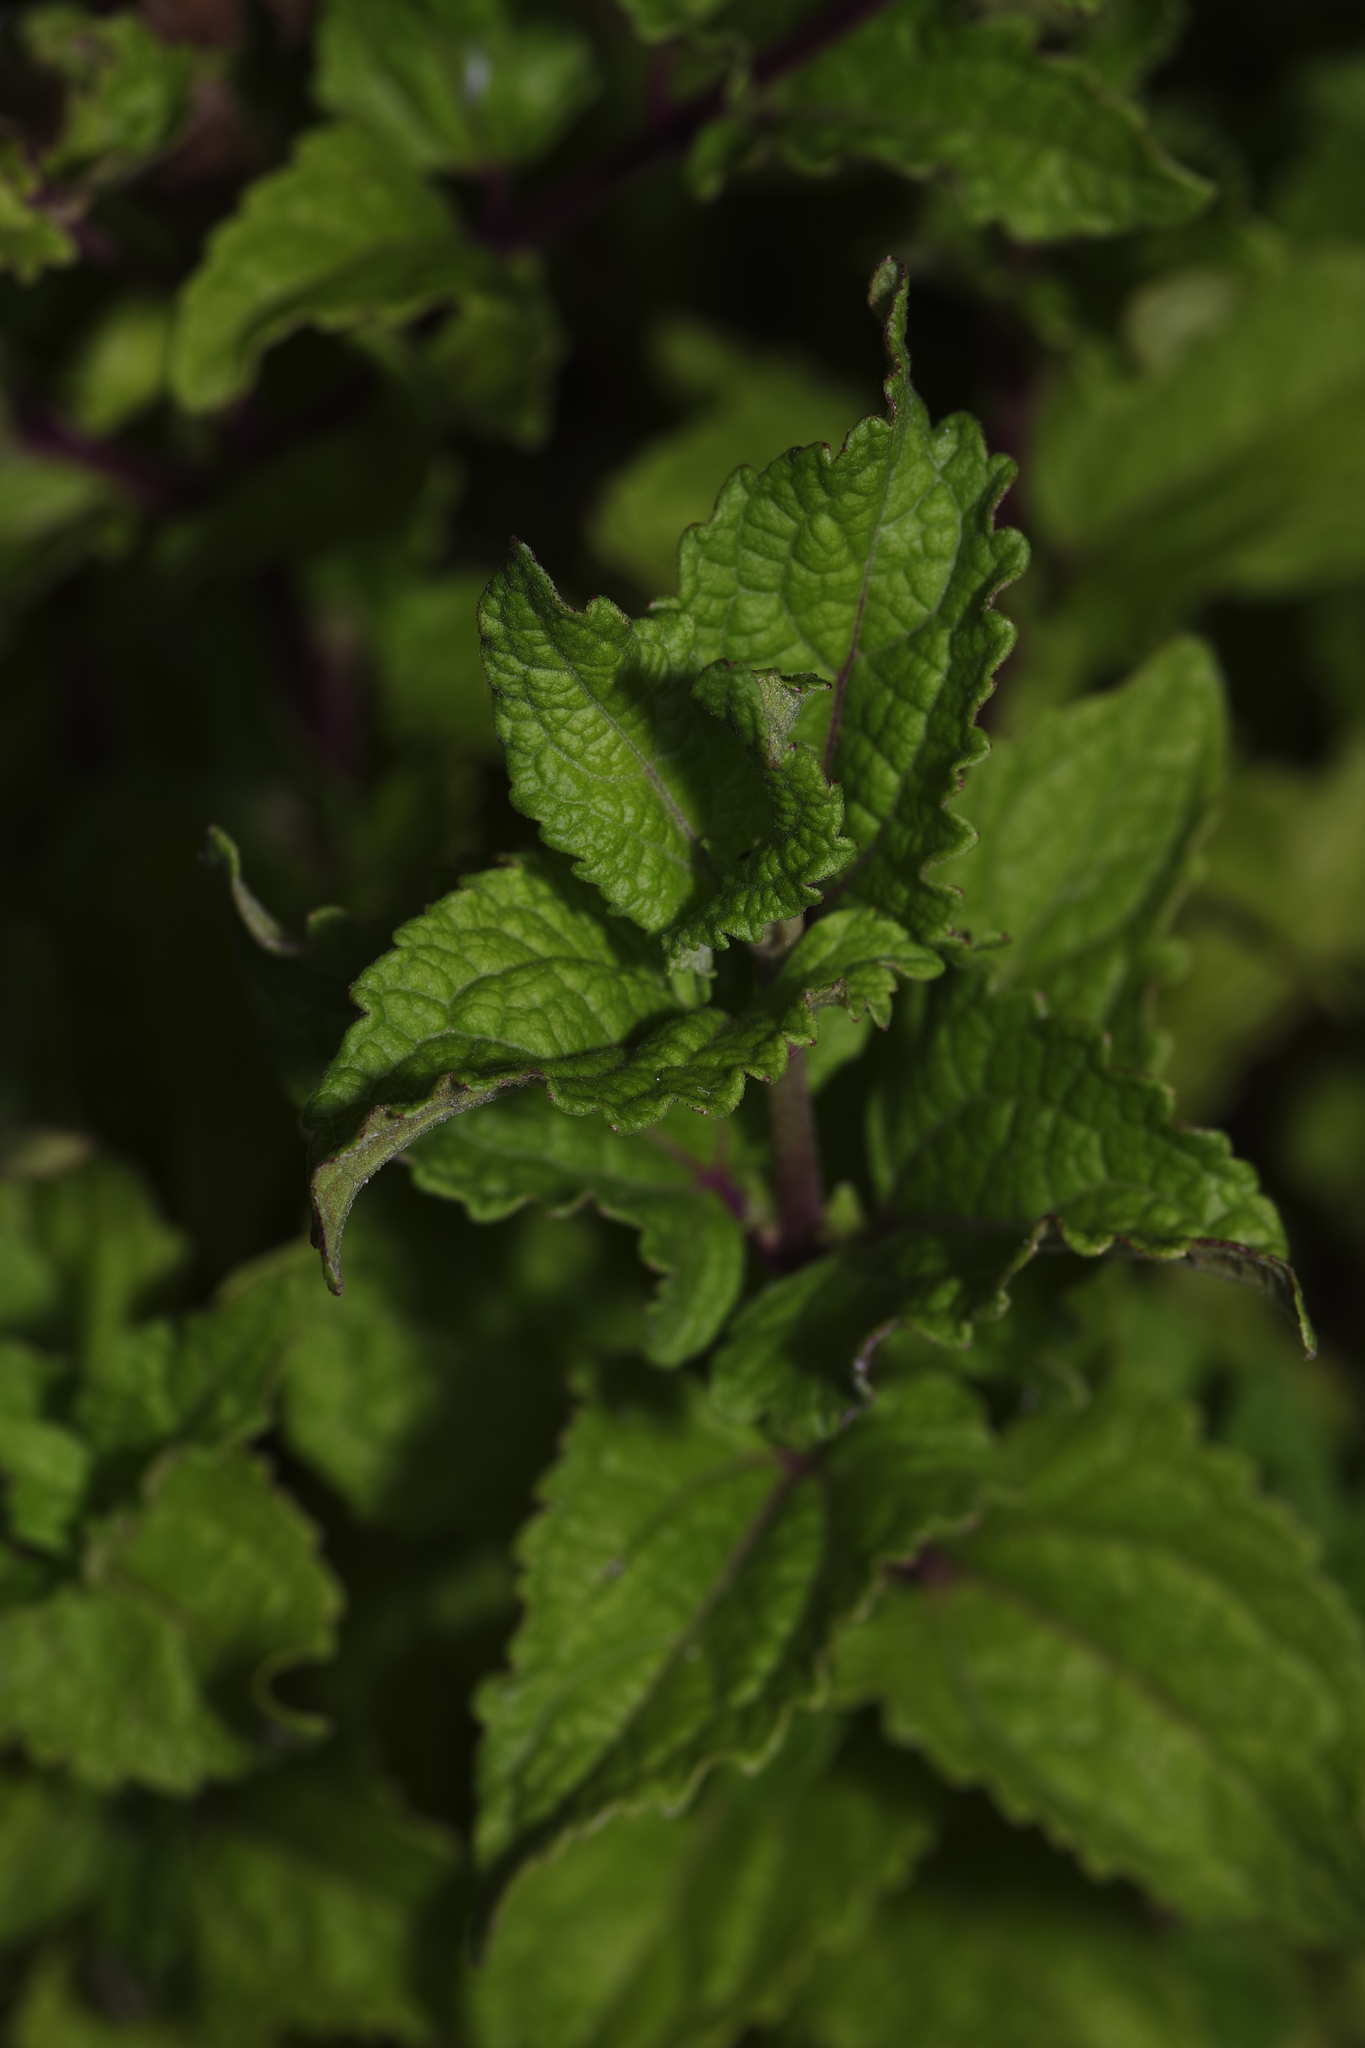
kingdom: Plantae
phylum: Tracheophyta
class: Magnoliopsida
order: Asterales
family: Asteraceae
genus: Conoclinium
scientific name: Conoclinium coelestinum
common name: Blue mistflower
